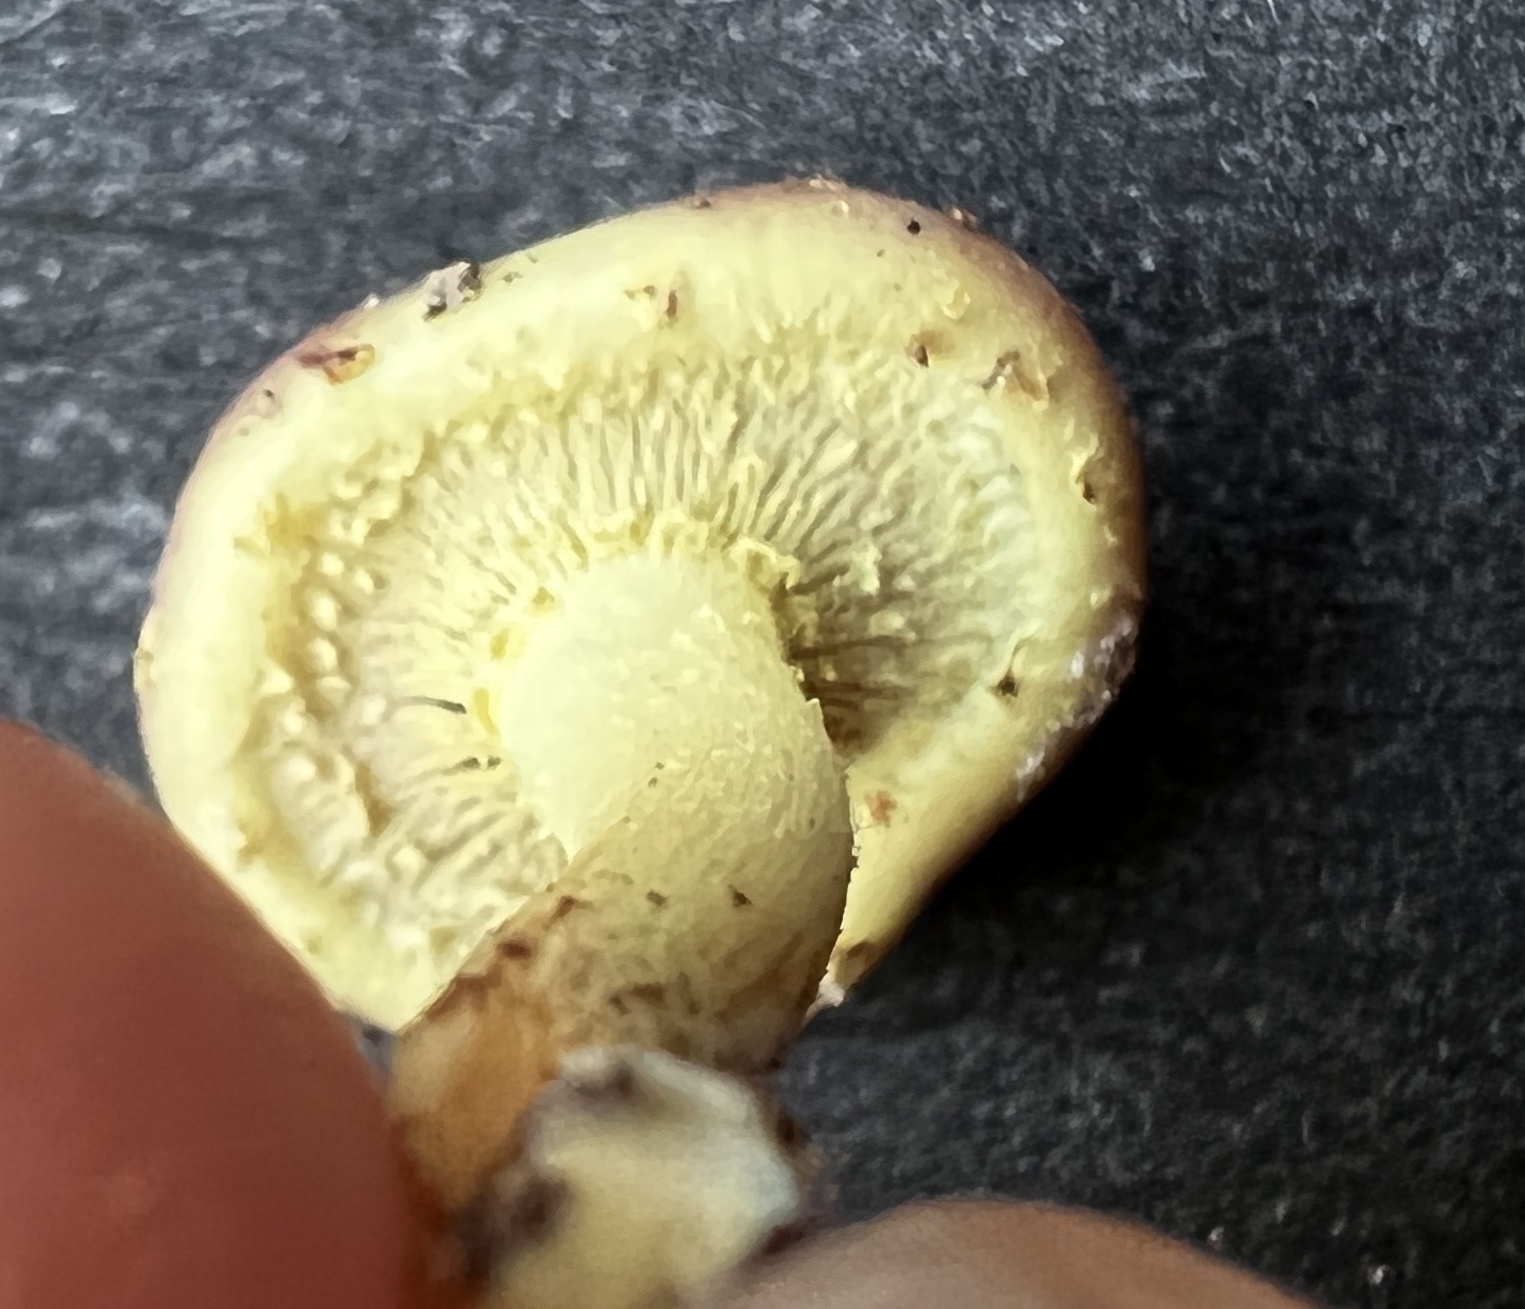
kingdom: Fungi
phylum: Basidiomycota
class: Agaricomycetes
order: Agaricales
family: Tricholomataceae
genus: Tricholomopsis
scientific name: Tricholomopsis rutilans
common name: Plums and custard
